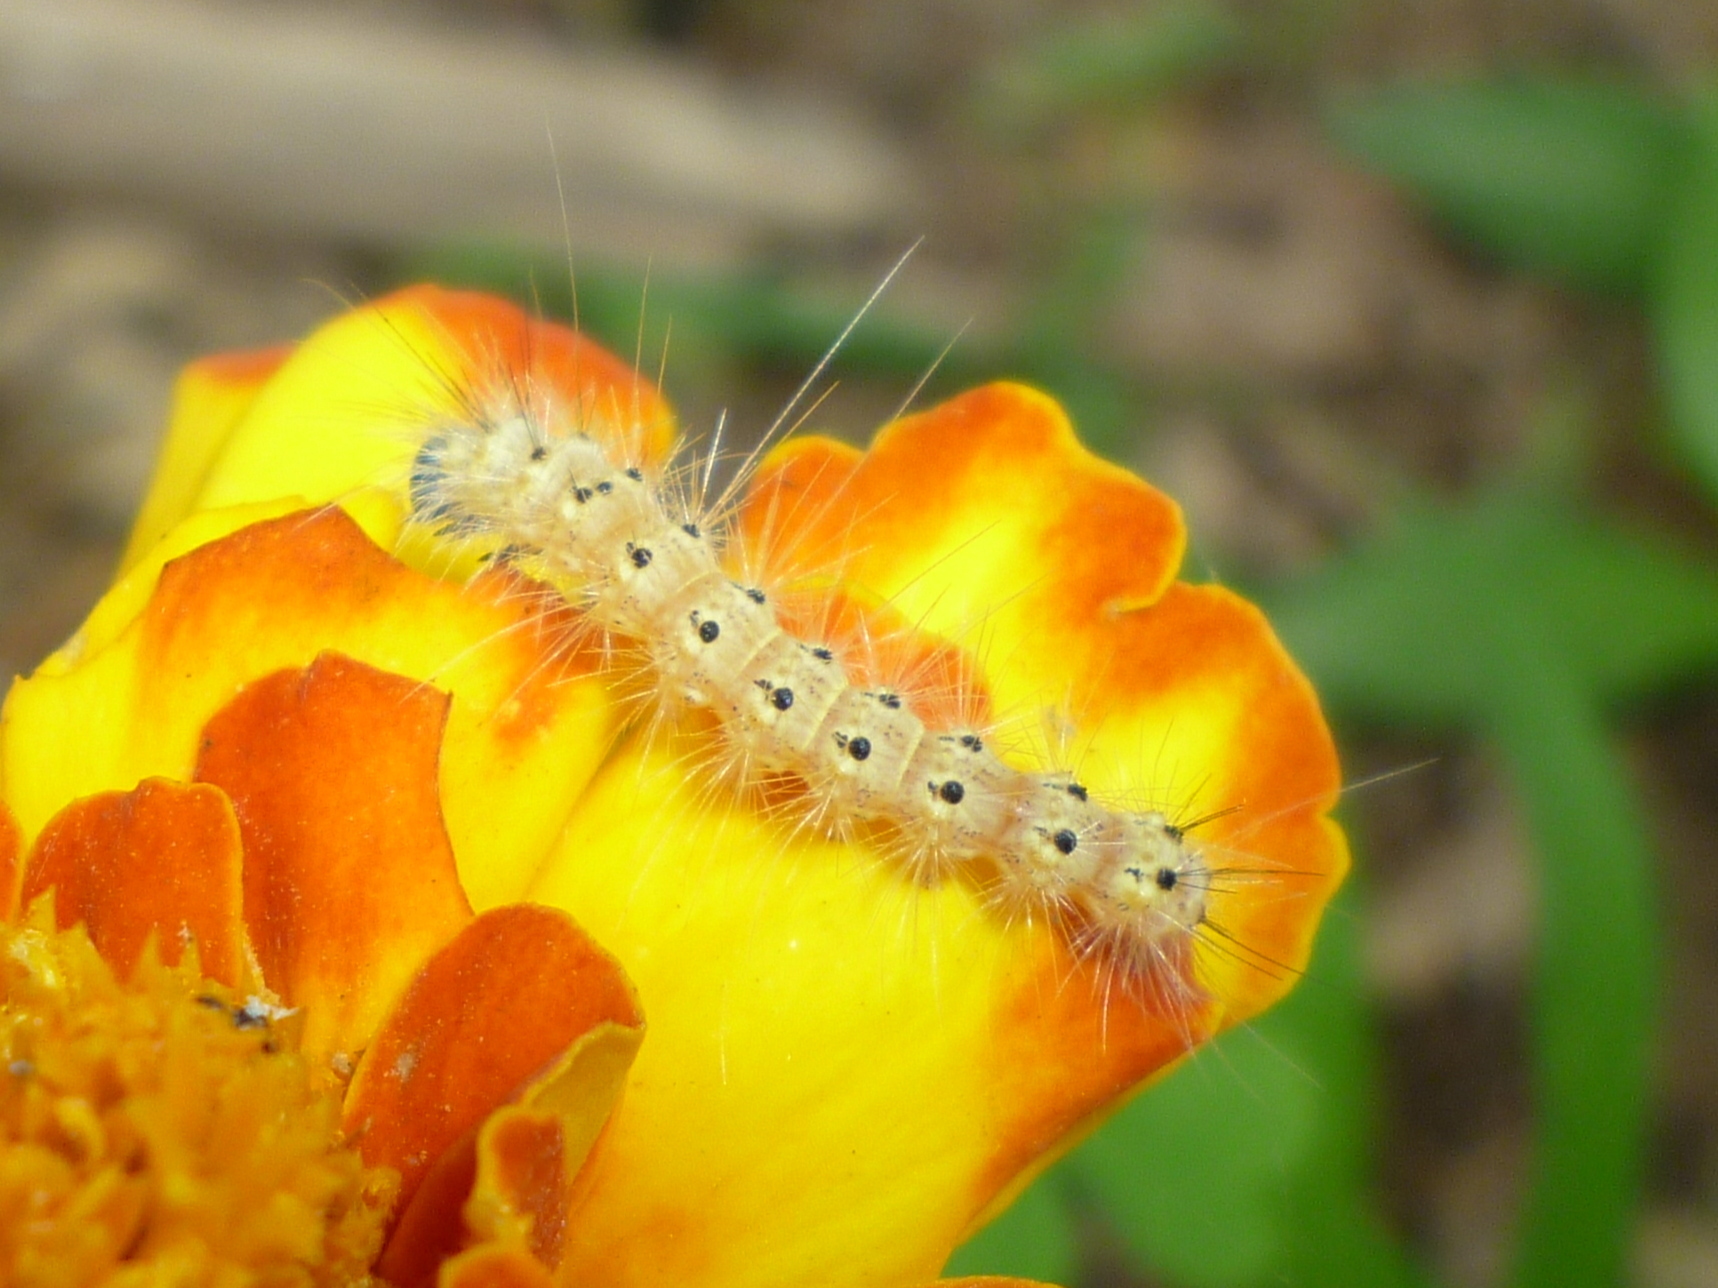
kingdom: Animalia
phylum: Arthropoda
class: Insecta
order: Lepidoptera
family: Erebidae
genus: Hyphantria
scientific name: Hyphantria cunea
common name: American white moth
